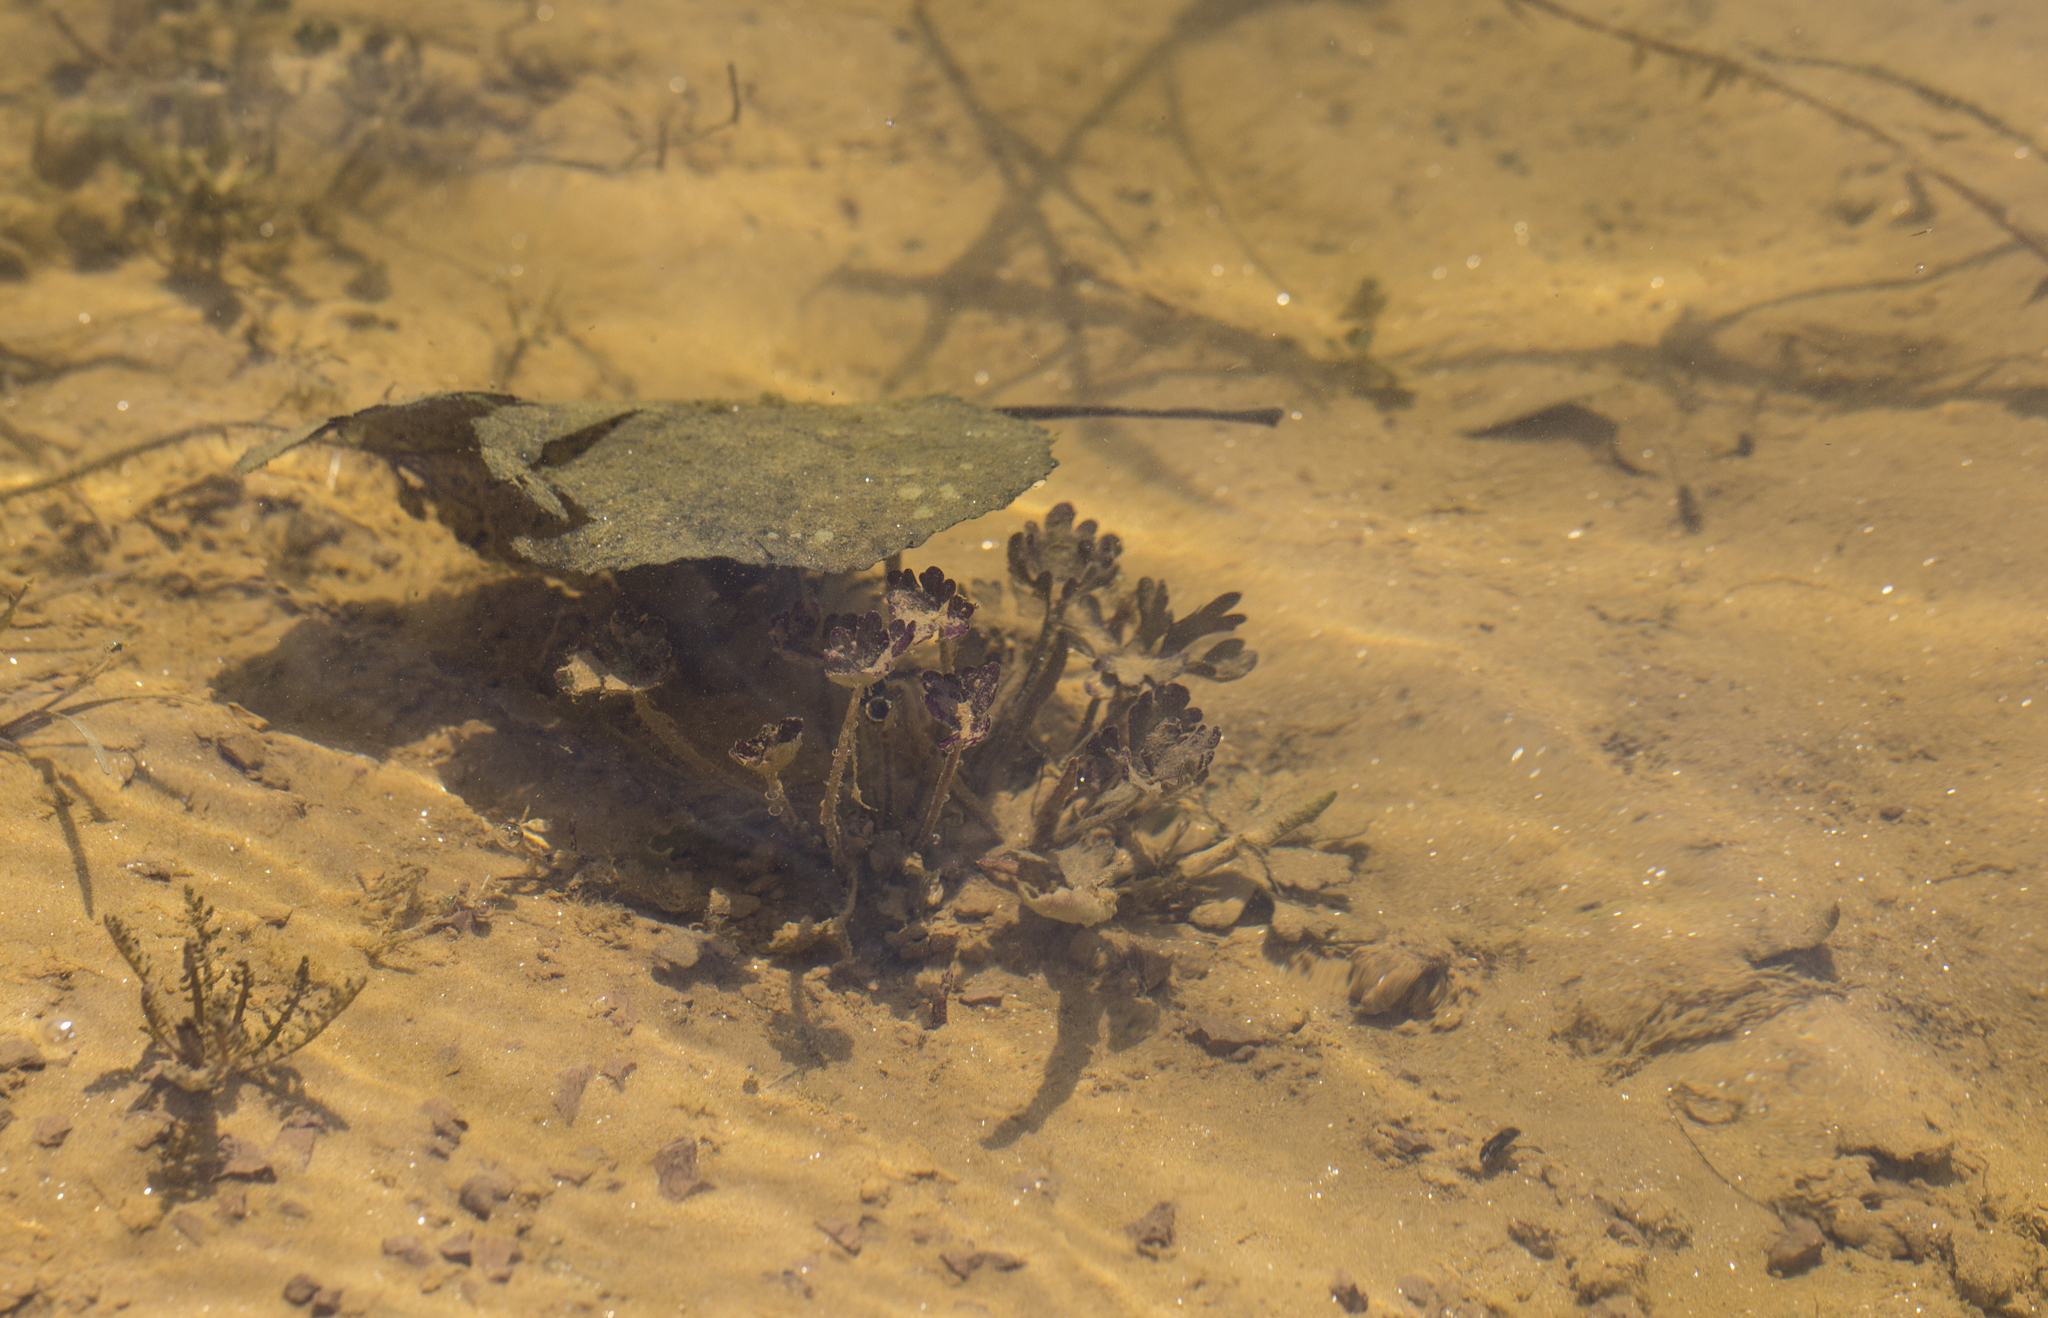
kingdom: Plantae
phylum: Tracheophyta
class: Magnoliopsida
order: Ranunculales
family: Ranunculaceae
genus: Ranunculus
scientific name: Ranunculus sceleratus
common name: Celery-leaved buttercup
